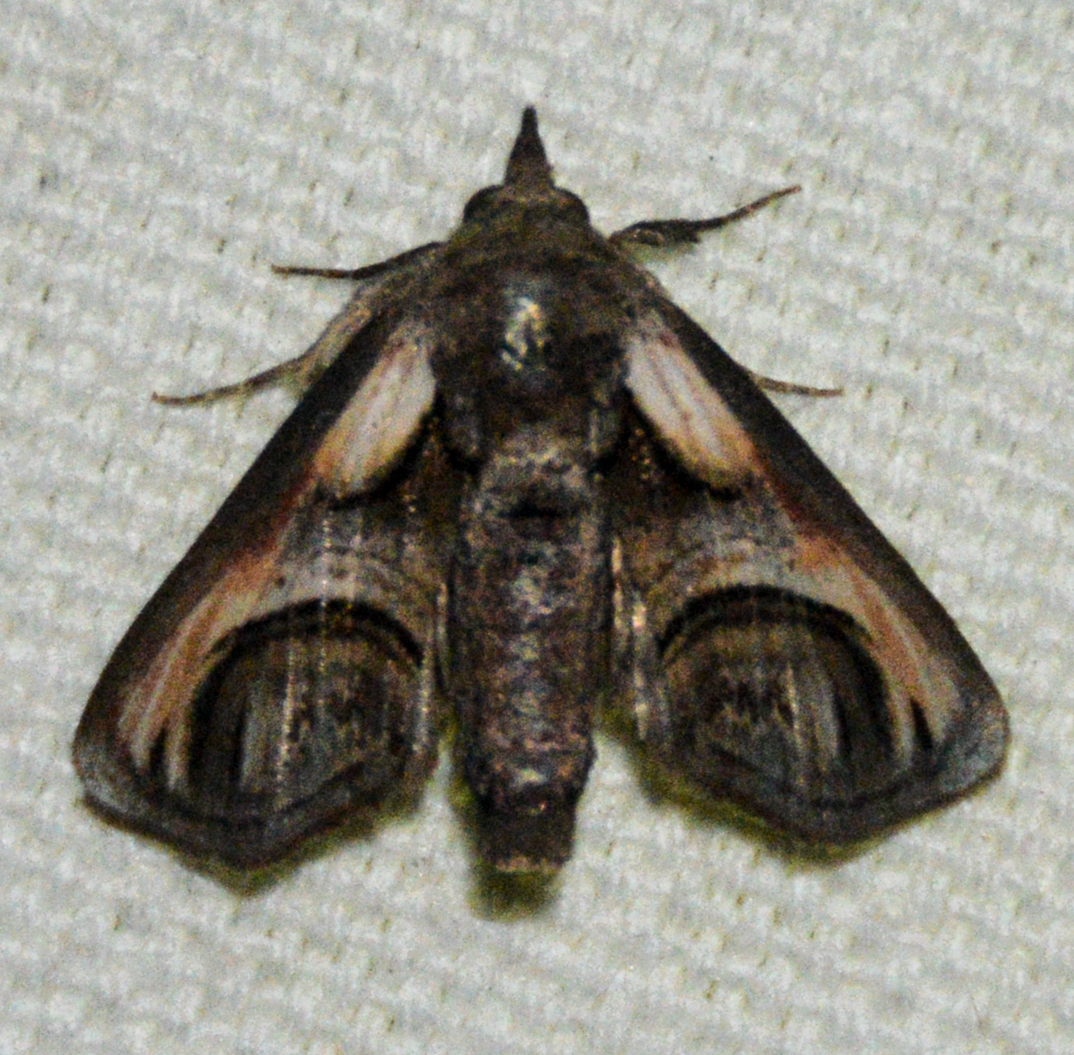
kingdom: Animalia
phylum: Arthropoda
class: Insecta
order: Lepidoptera
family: Euteliidae
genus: Paectes
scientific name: Paectes oculatrix
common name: Eyed paectes moth
